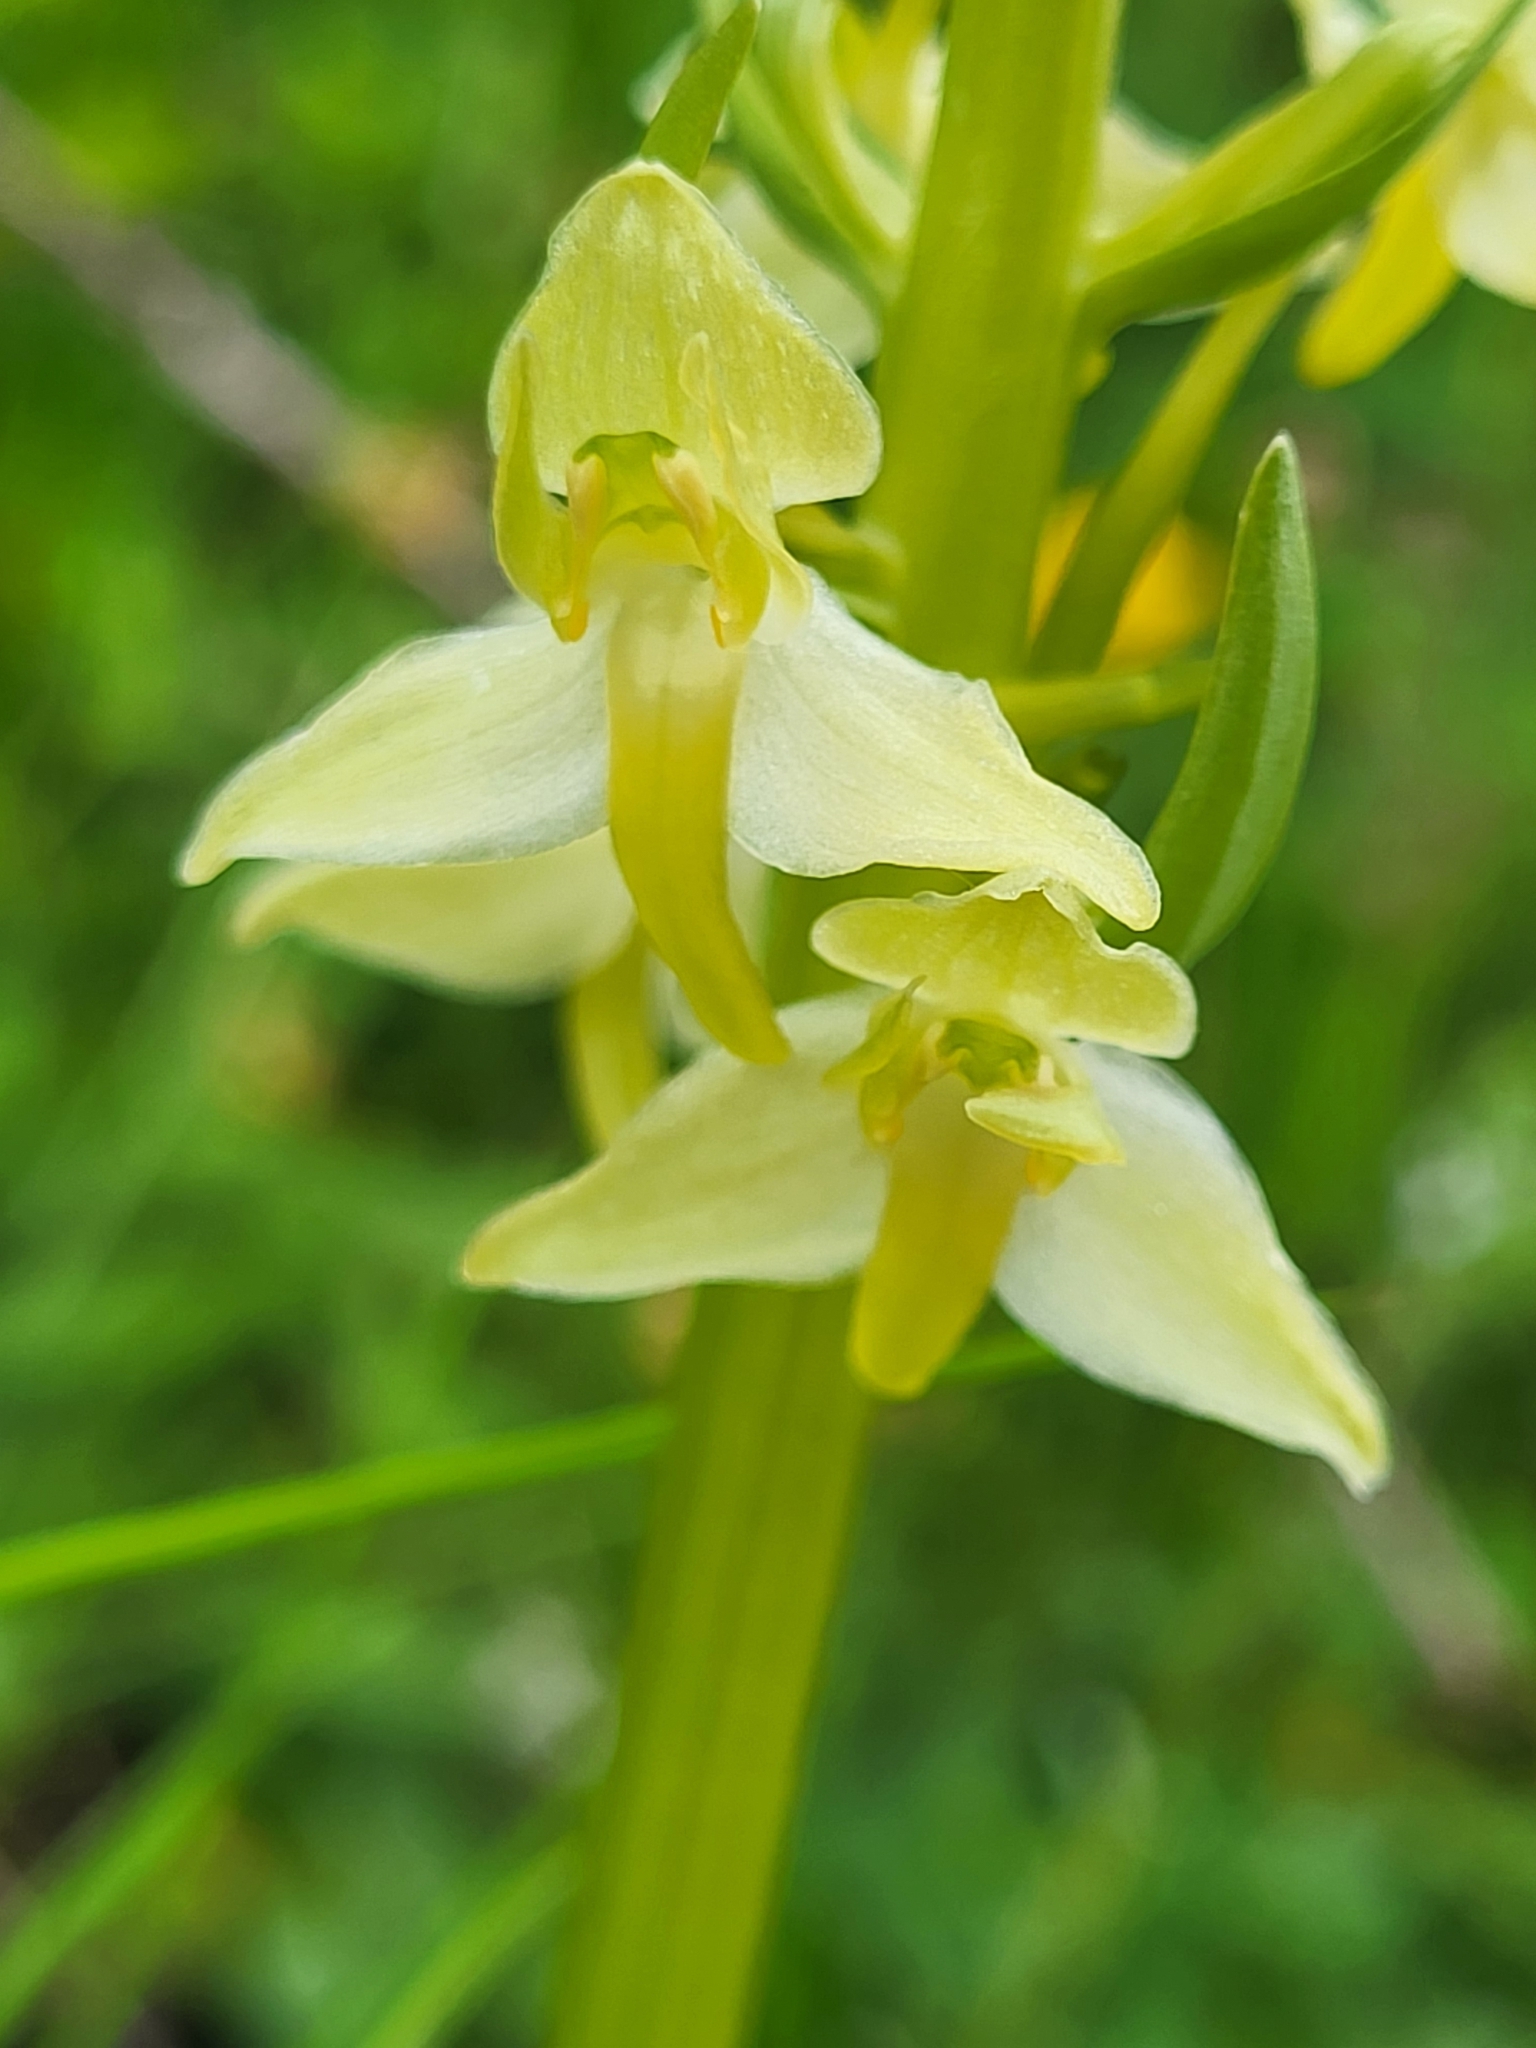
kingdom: Plantae
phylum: Tracheophyta
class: Liliopsida
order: Asparagales
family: Orchidaceae
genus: Platanthera
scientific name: Platanthera chlorantha
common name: Greater butterfly-orchid
